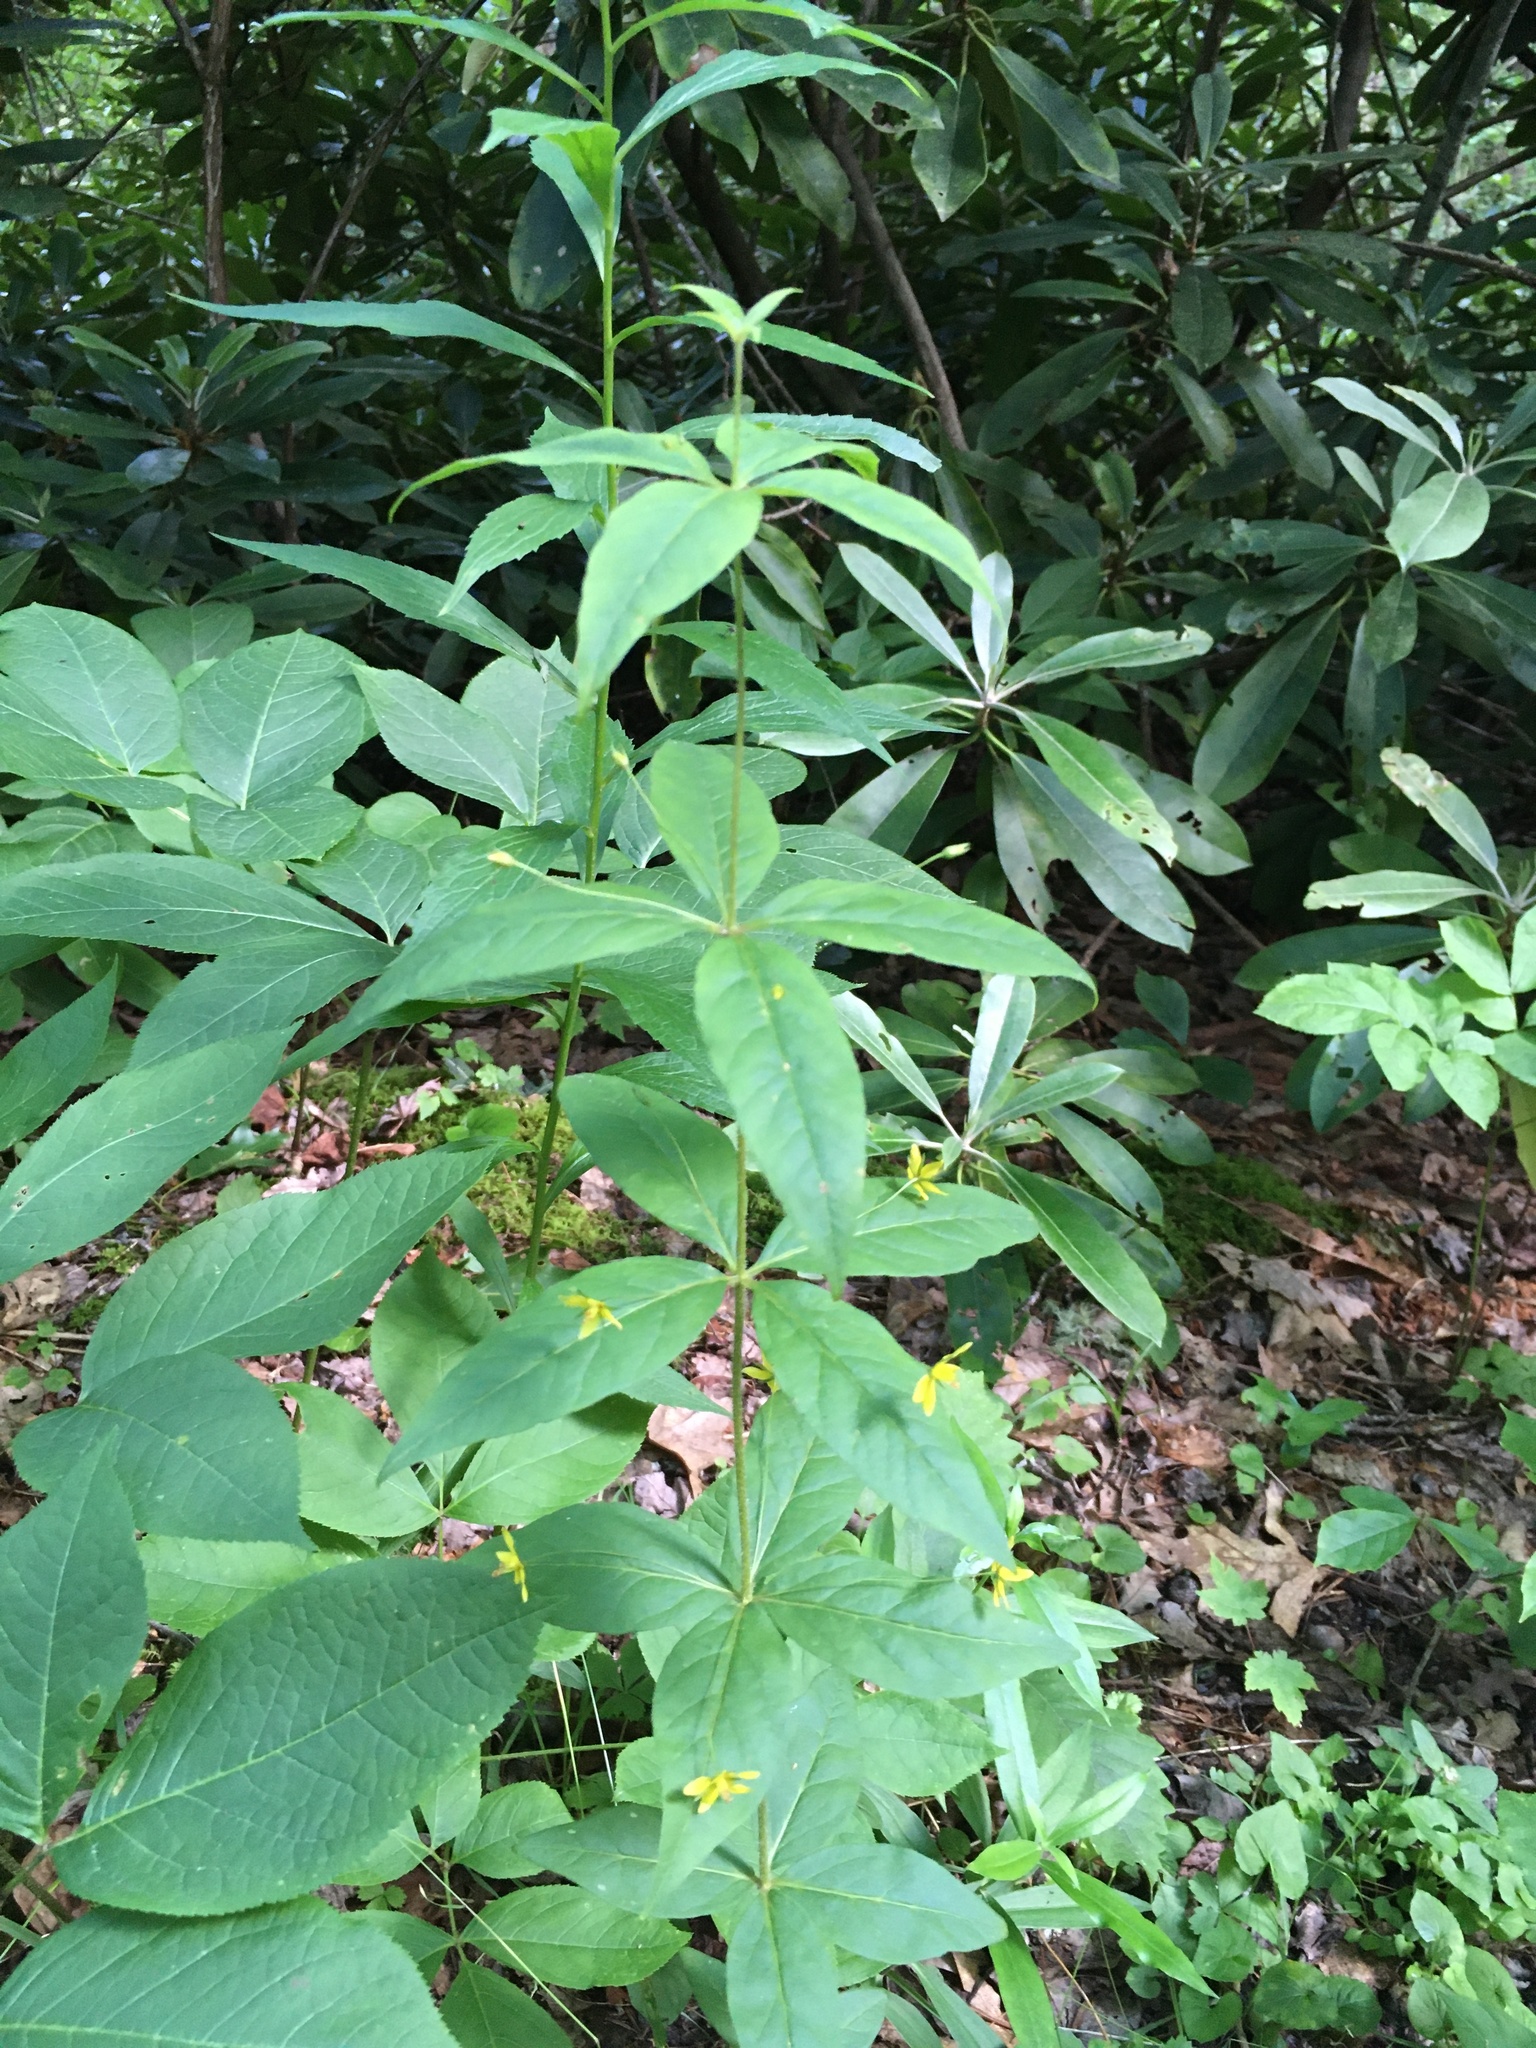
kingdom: Plantae
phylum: Tracheophyta
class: Magnoliopsida
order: Ericales
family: Primulaceae
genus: Lysimachia
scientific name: Lysimachia quadrifolia
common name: Whorled loosestrife
